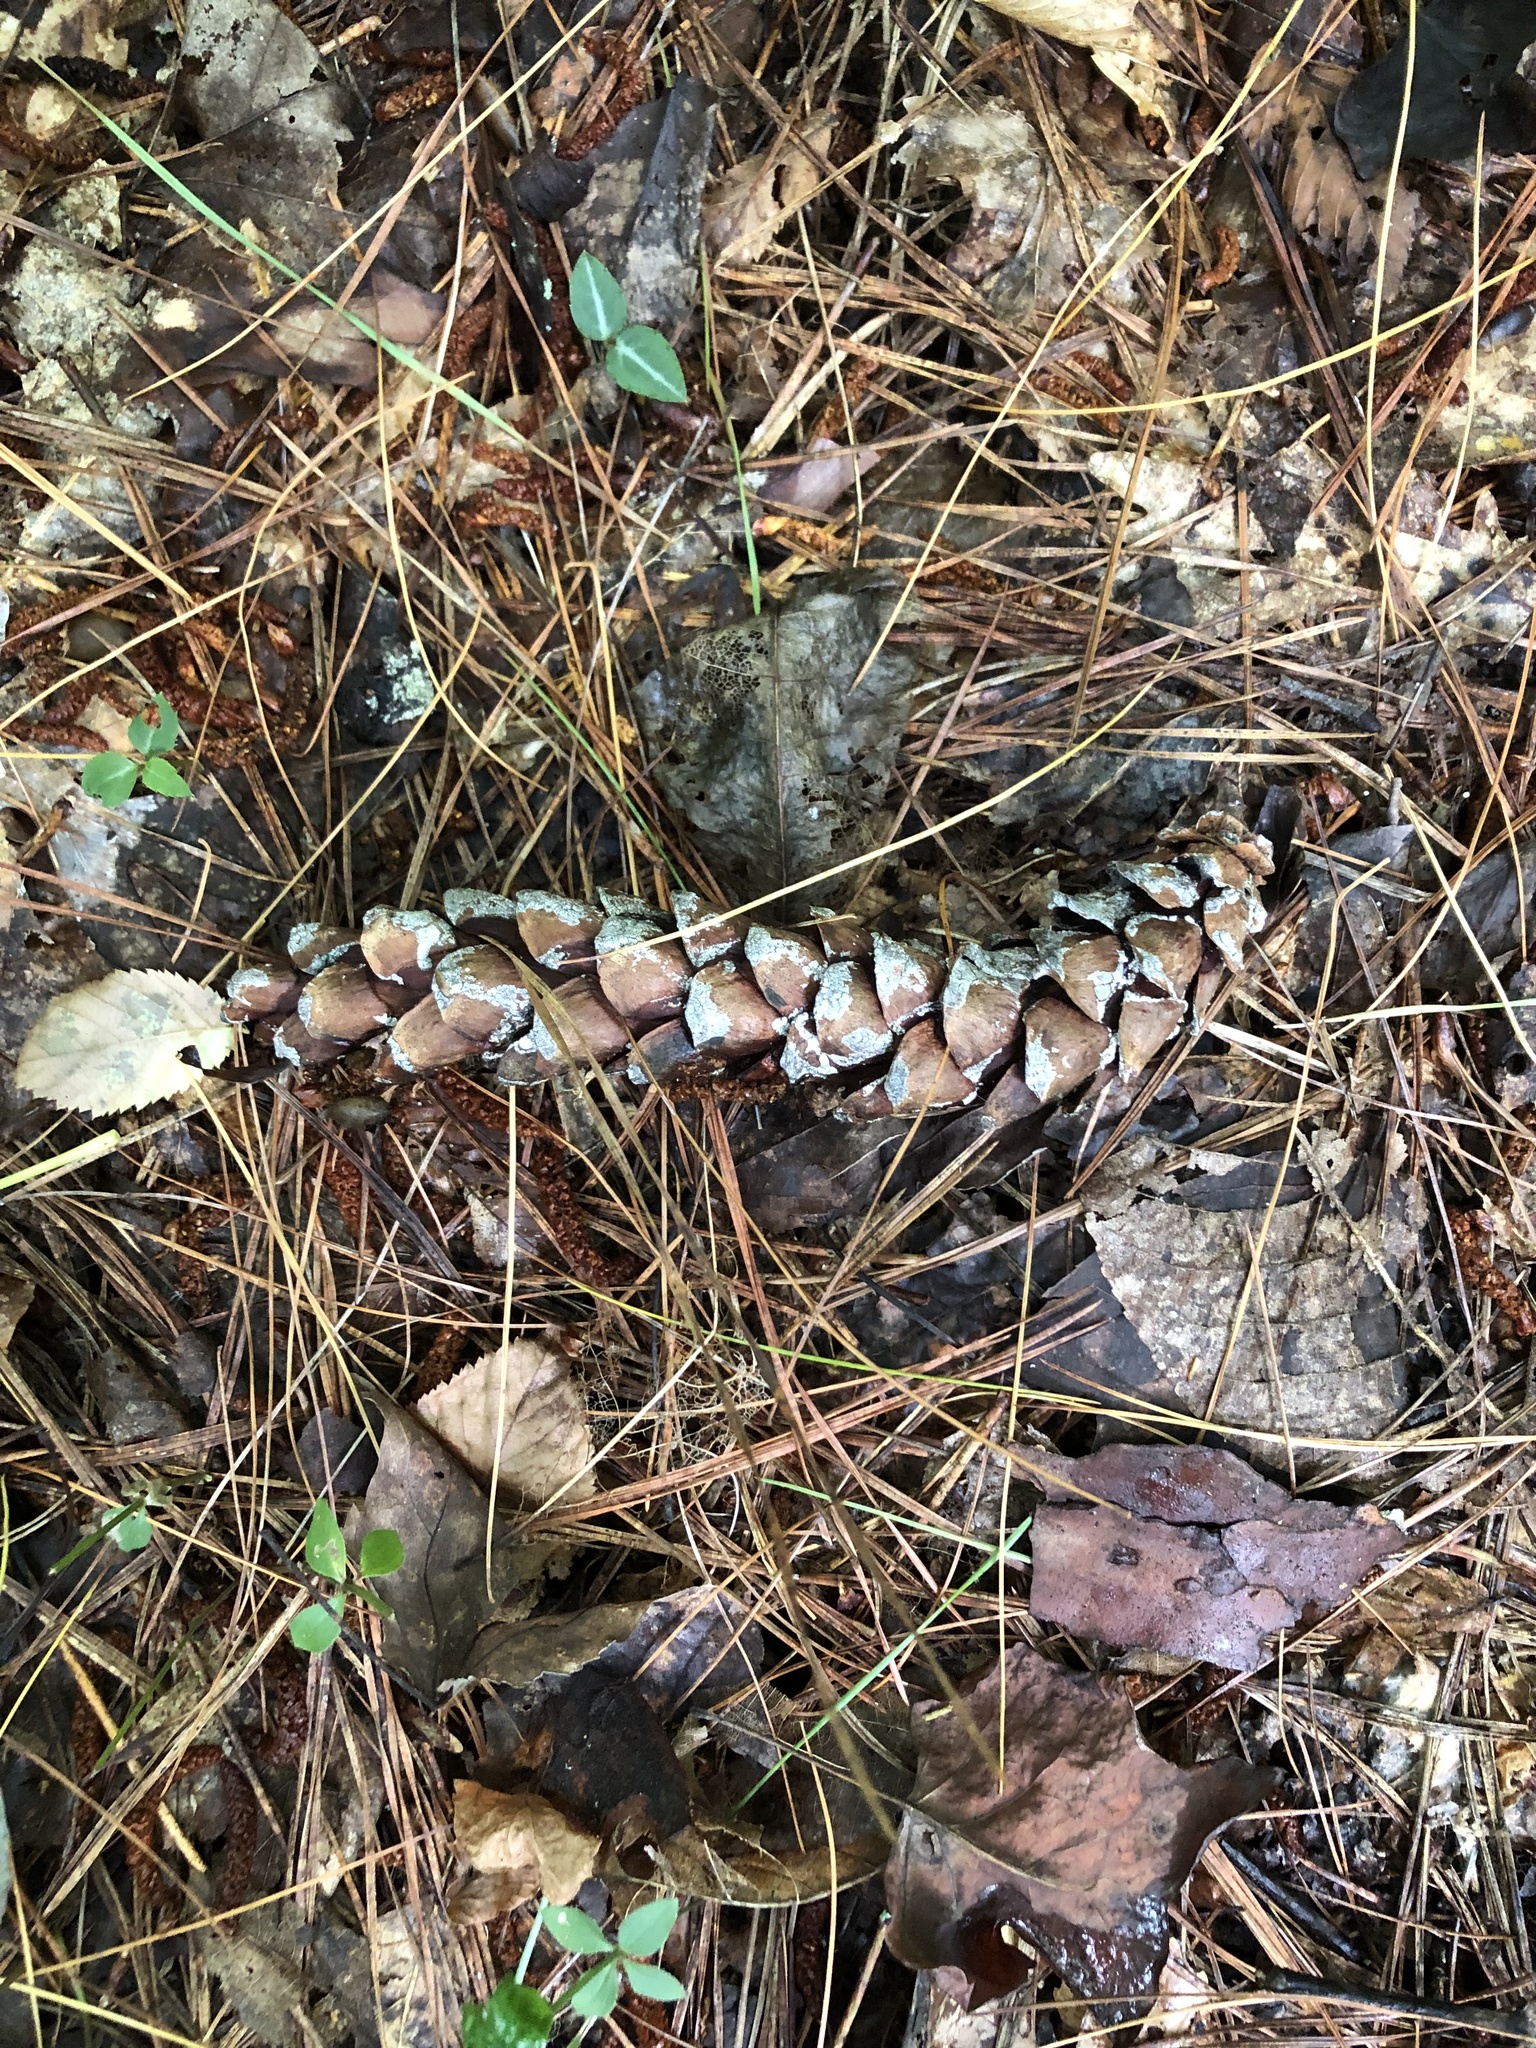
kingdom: Plantae
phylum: Tracheophyta
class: Pinopsida
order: Pinales
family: Pinaceae
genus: Pinus
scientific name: Pinus strobus
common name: Weymouth pine
